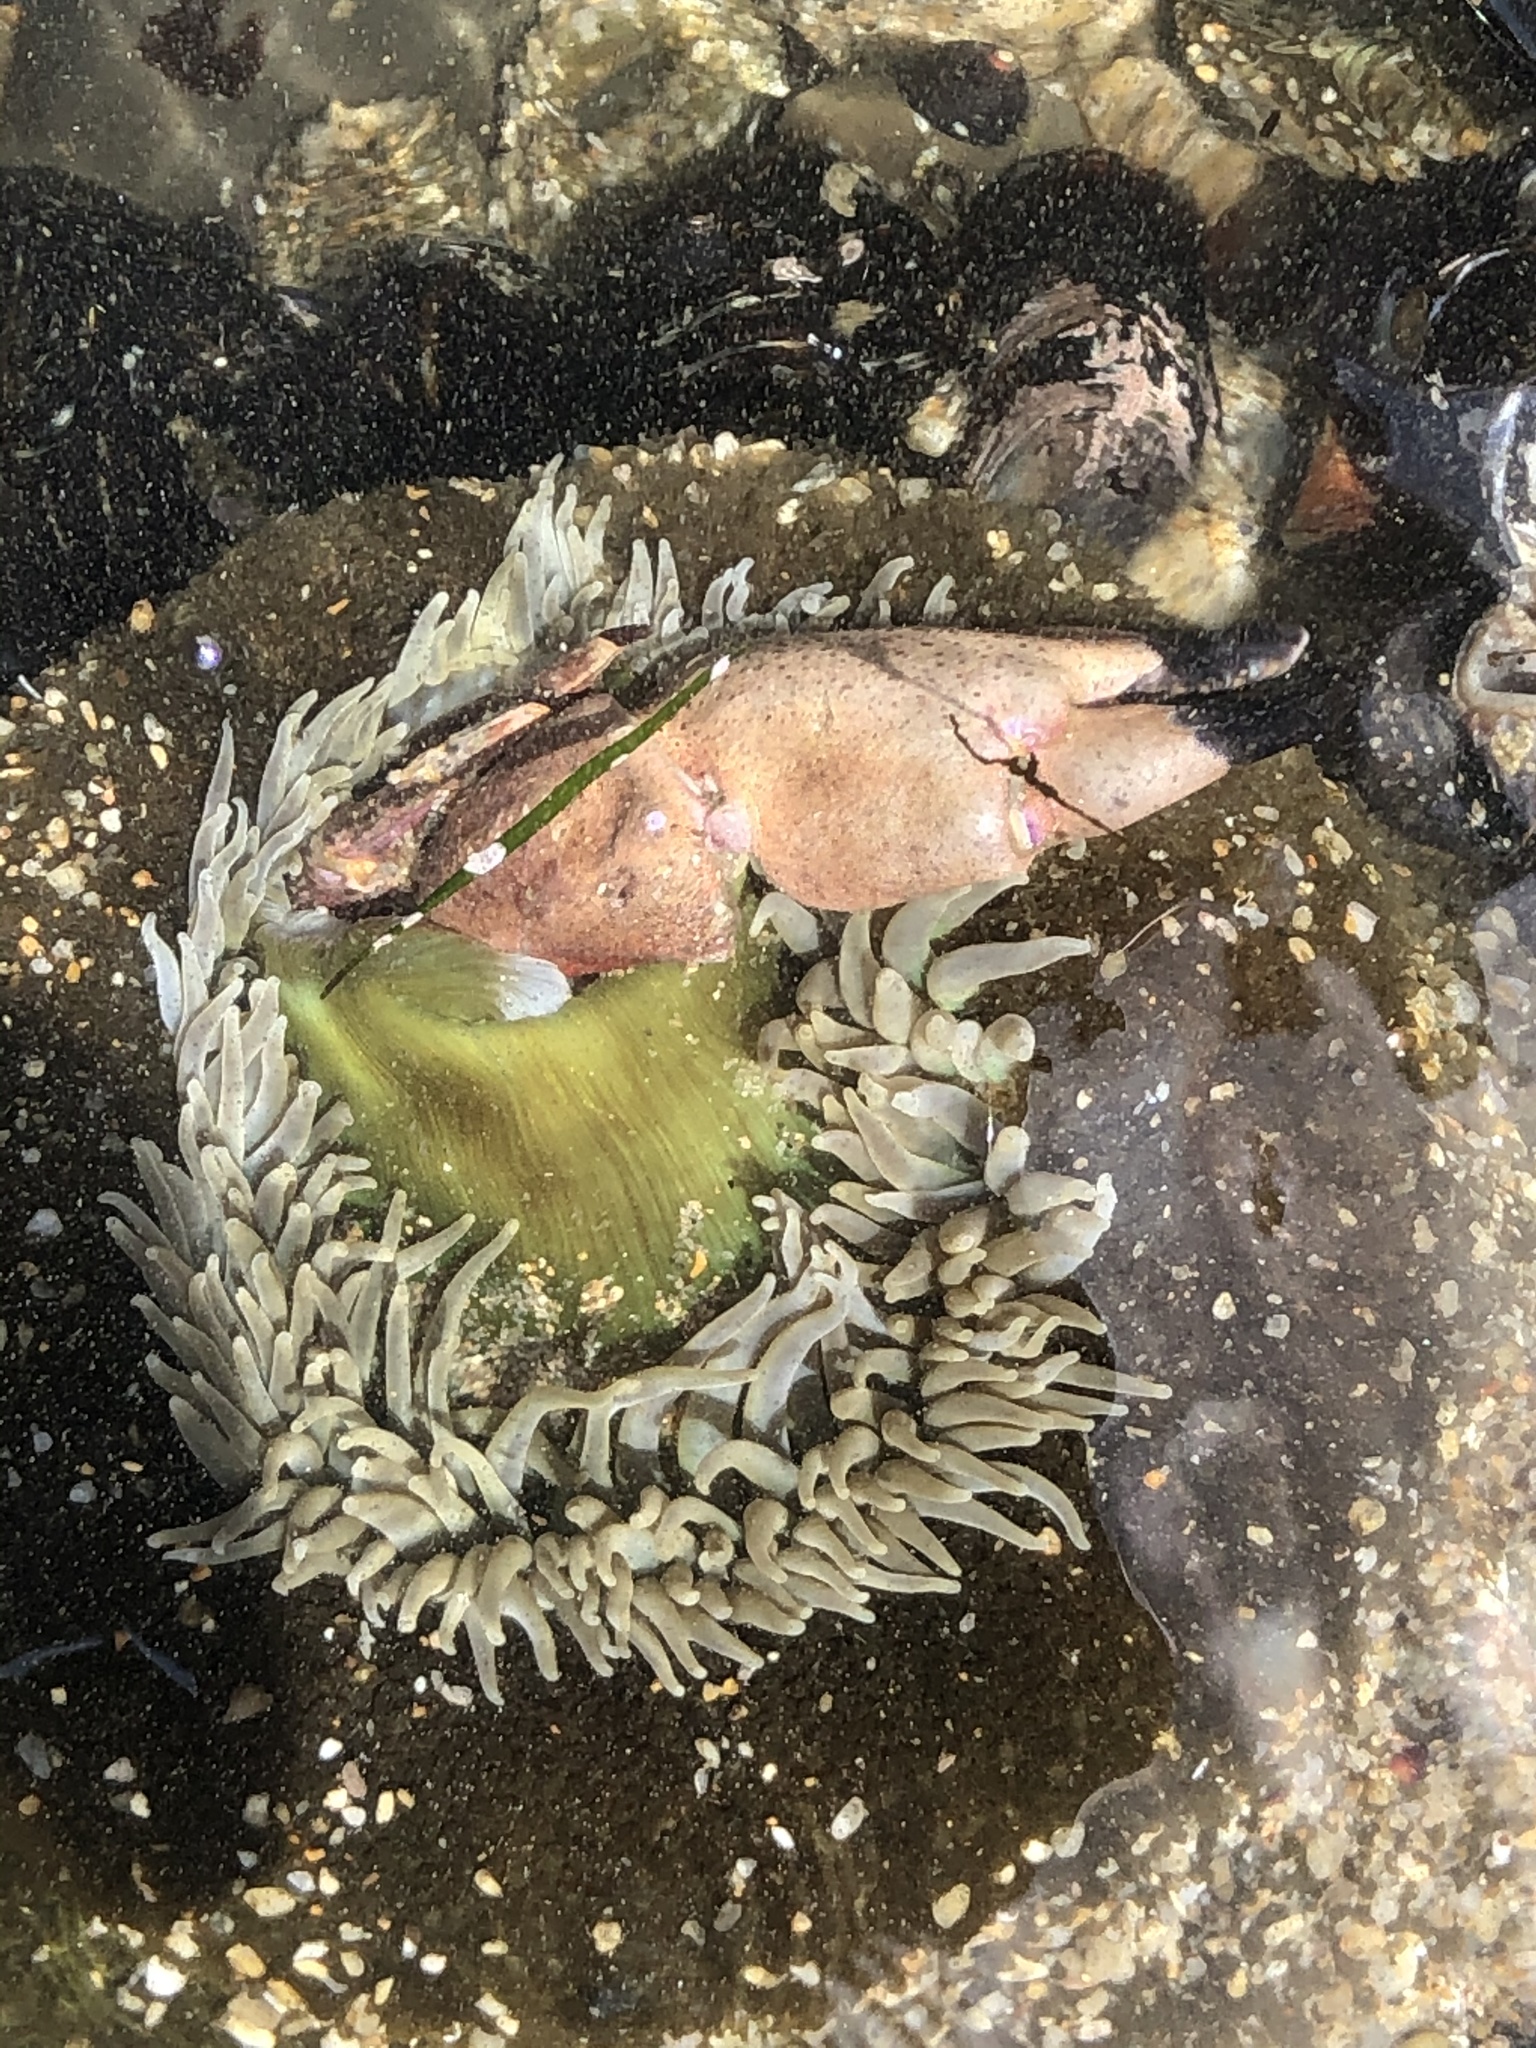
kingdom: Animalia
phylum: Cnidaria
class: Anthozoa
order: Actiniaria
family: Actiniidae
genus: Anthopleura
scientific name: Anthopleura xanthogrammica
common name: Giant green anemone
